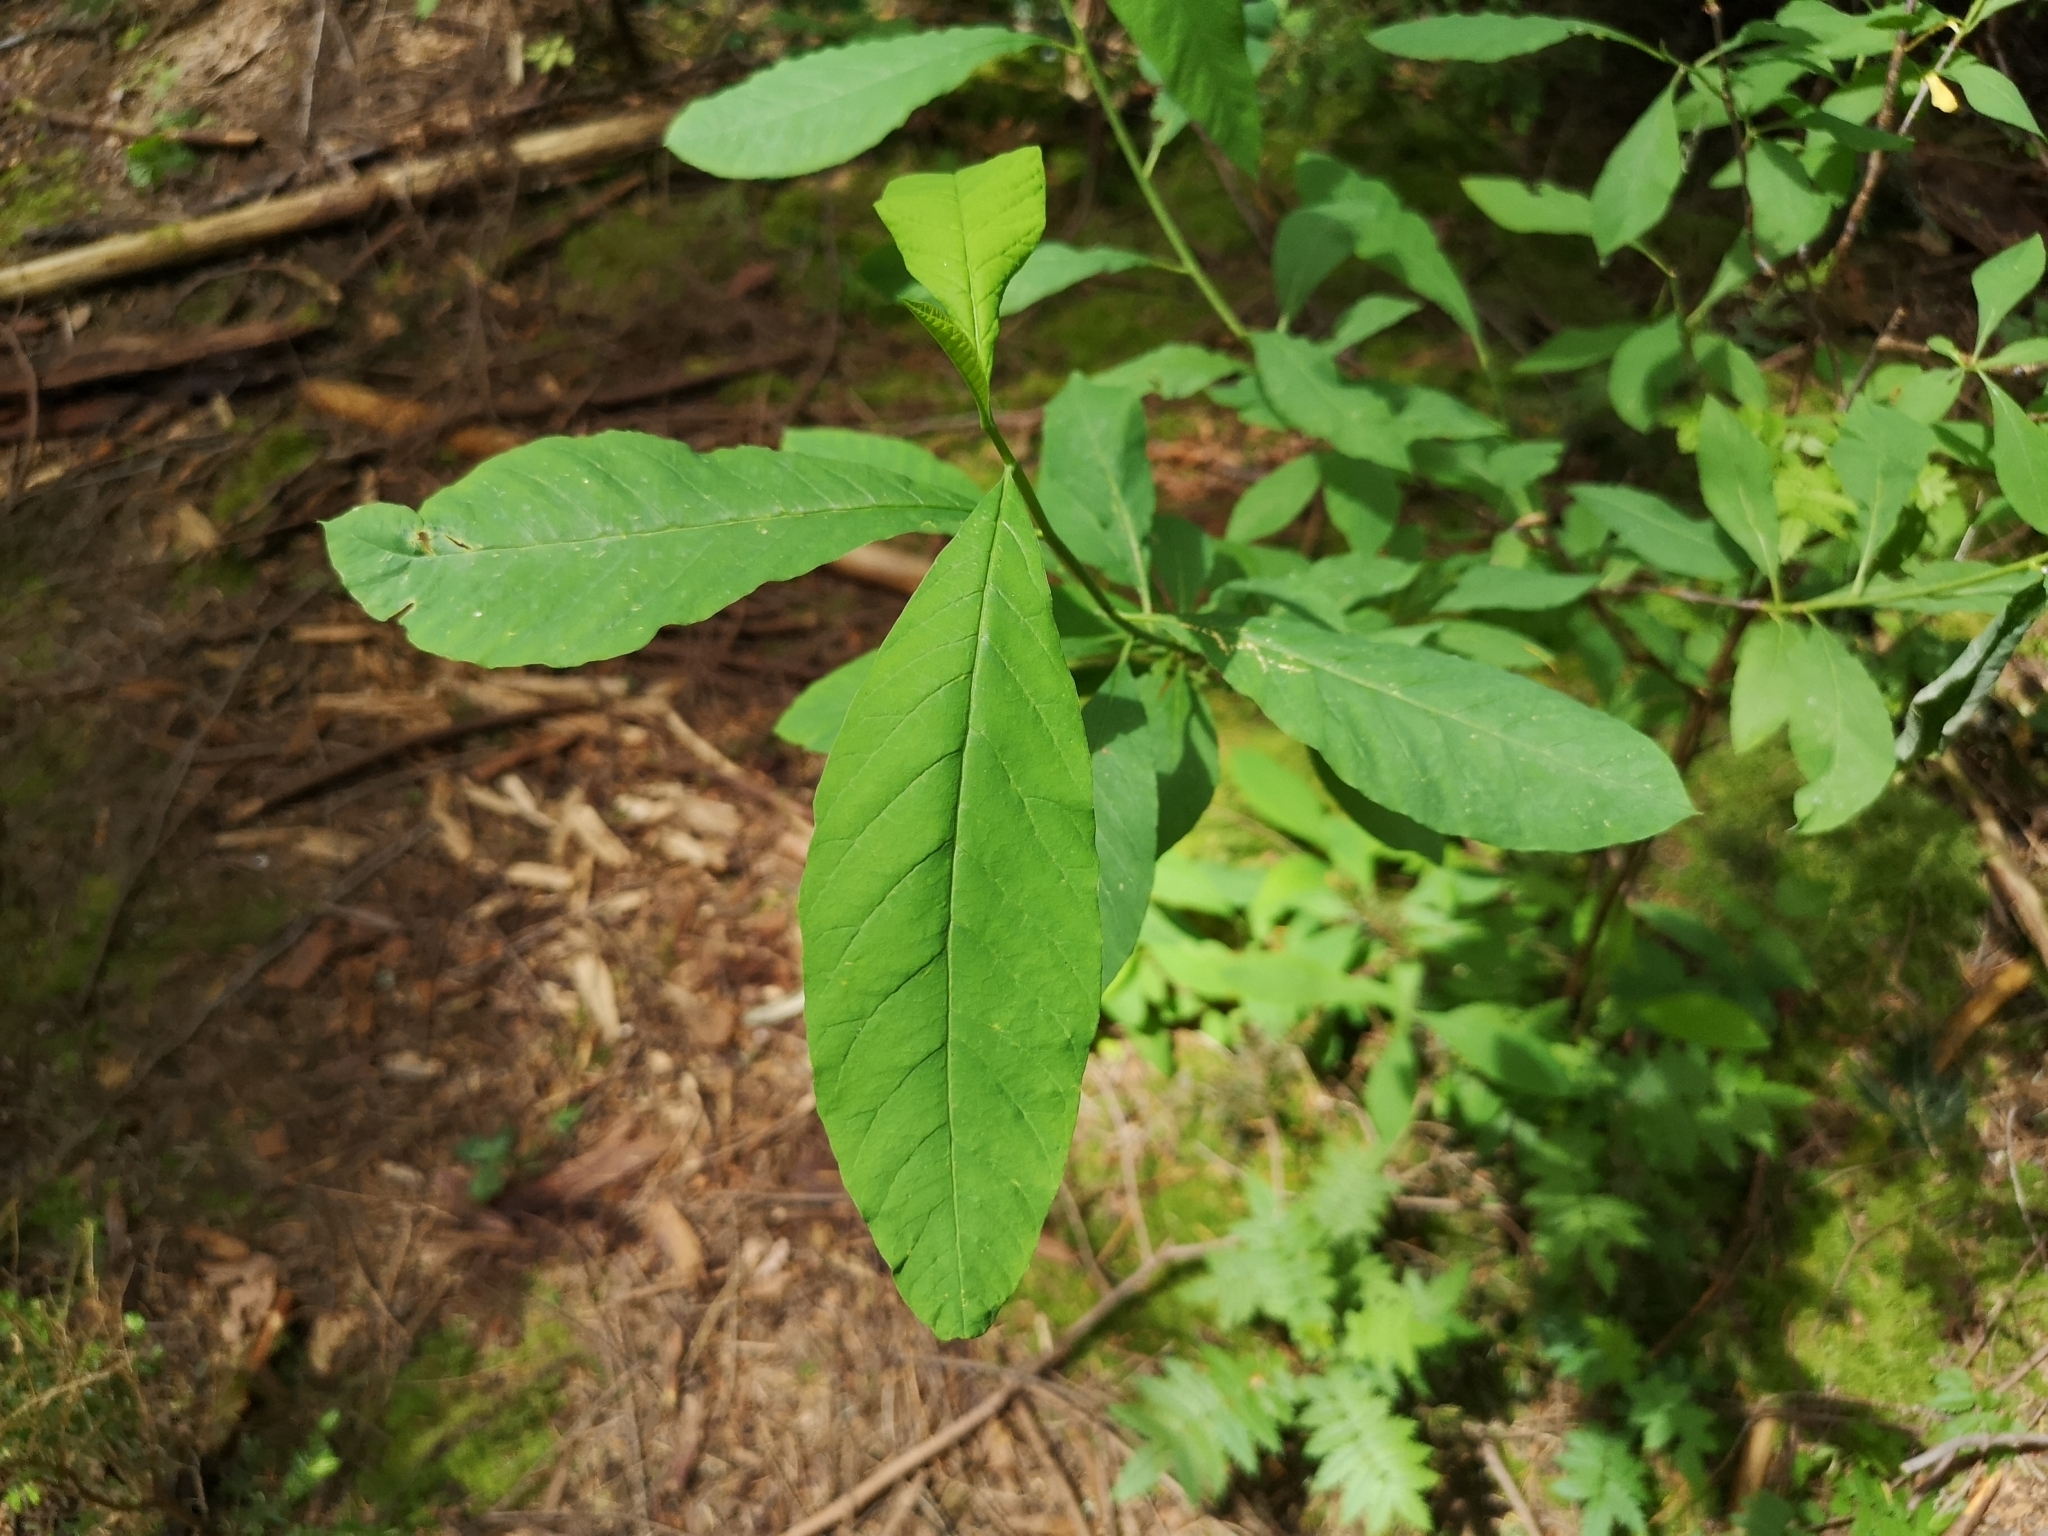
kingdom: Plantae
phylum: Tracheophyta
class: Magnoliopsida
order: Rosales
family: Rosaceae
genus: Oemleria
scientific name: Oemleria cerasiformis
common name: Osoberry
